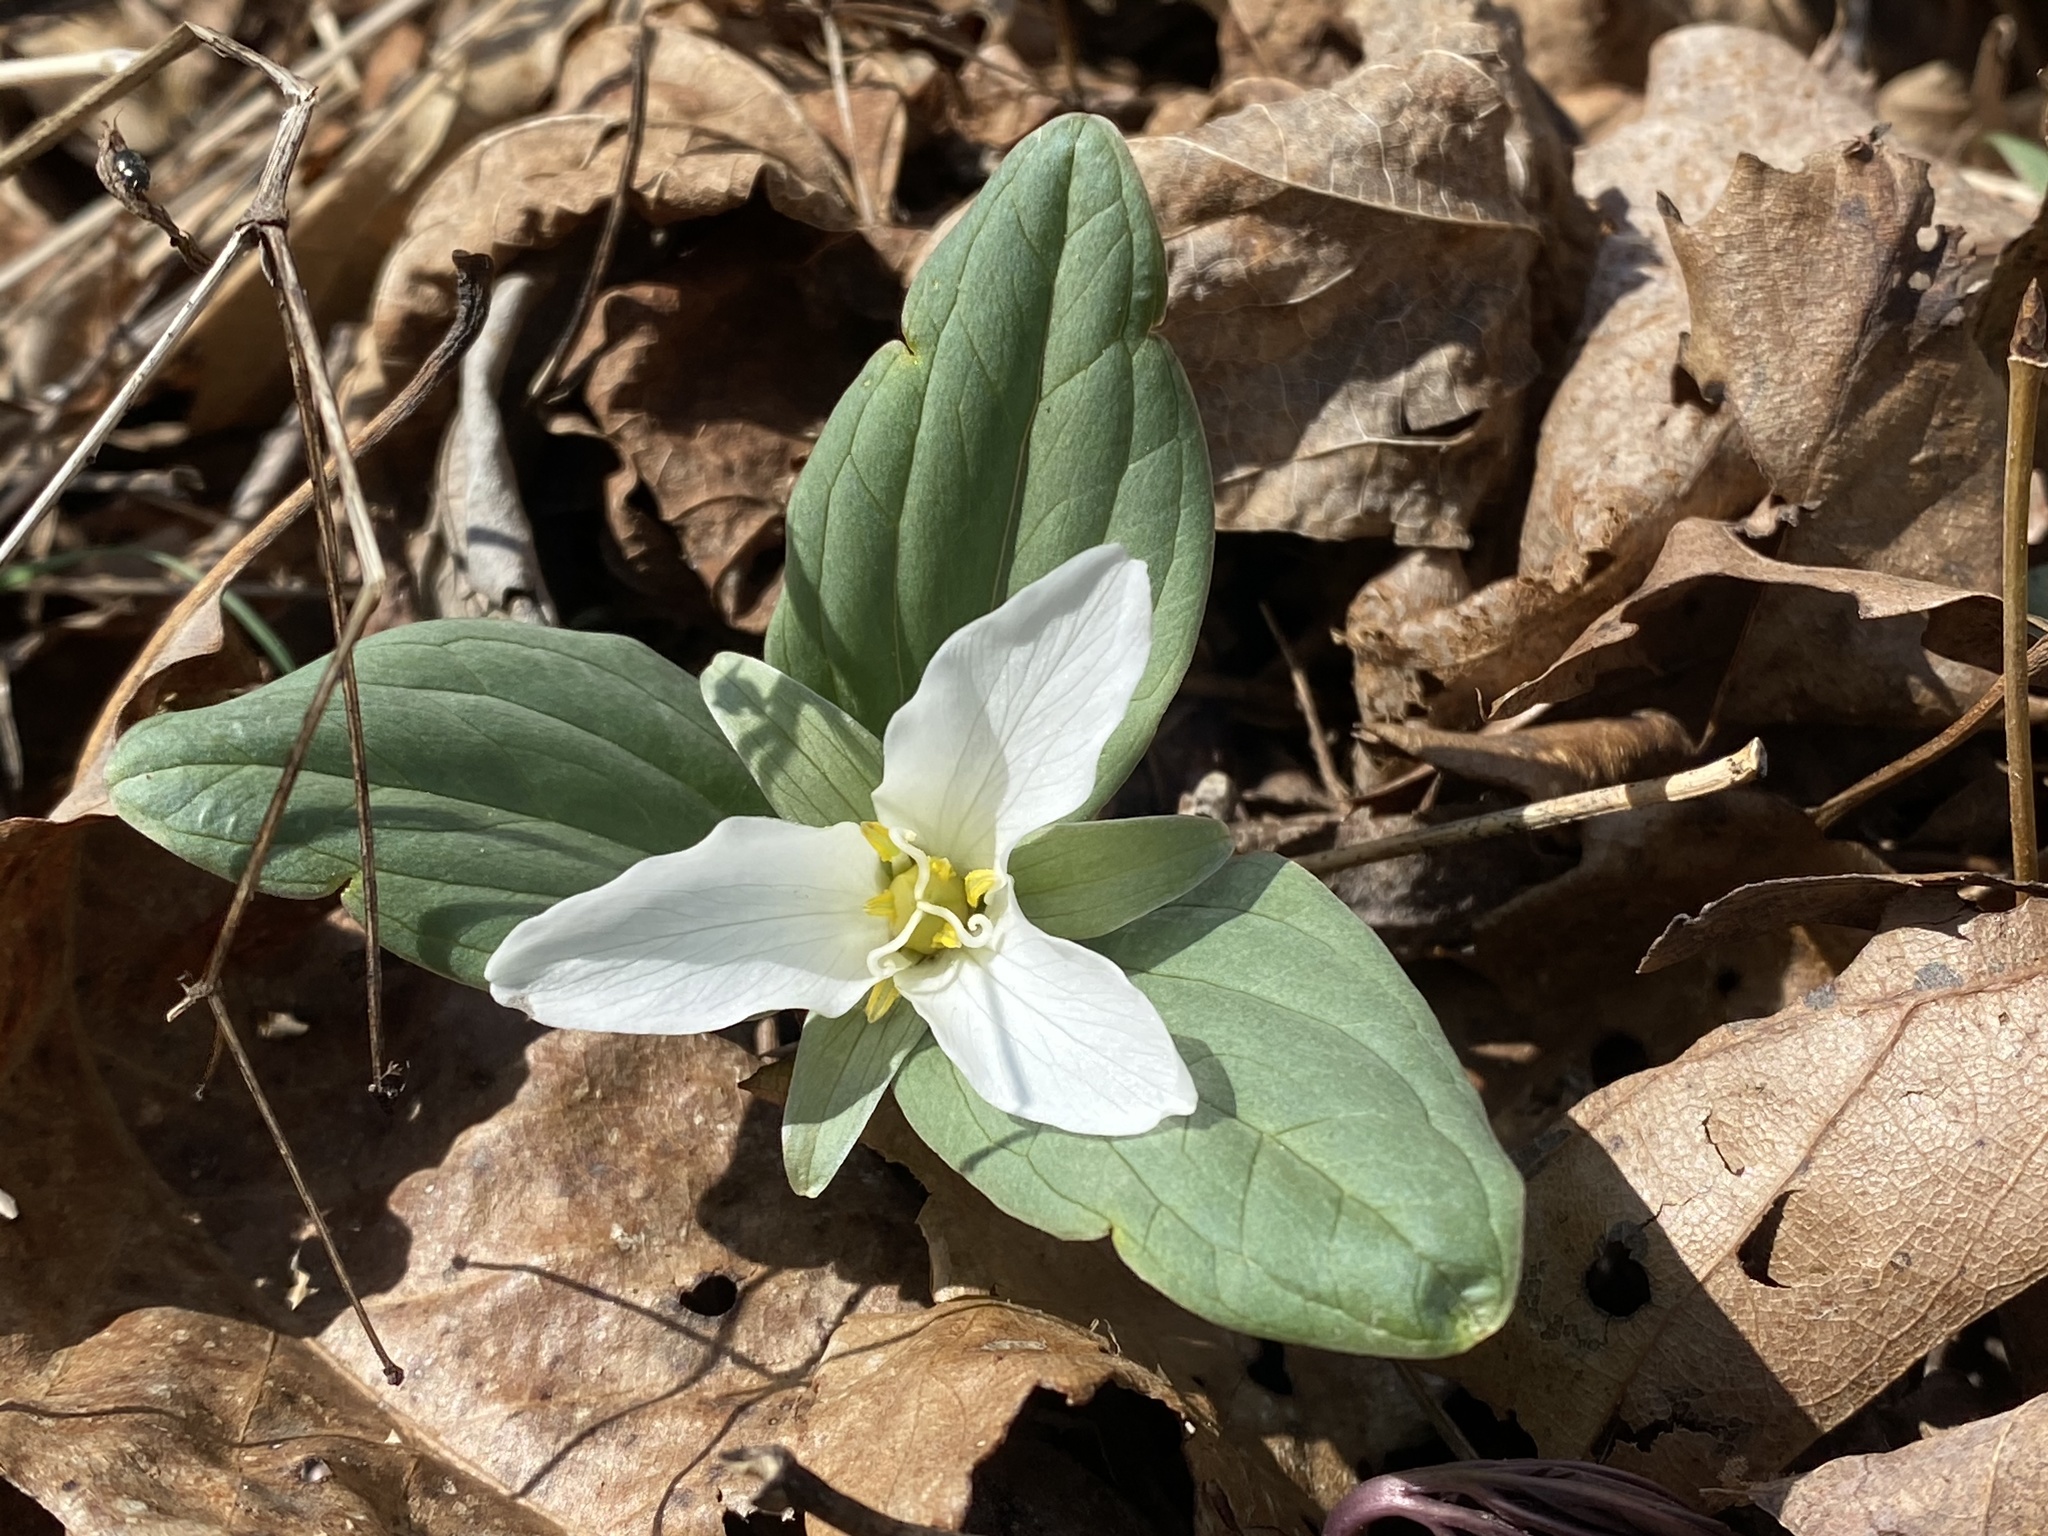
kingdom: Plantae
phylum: Tracheophyta
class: Liliopsida
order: Liliales
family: Melanthiaceae
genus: Trillium
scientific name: Trillium nivale
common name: Dwarf white trillium
